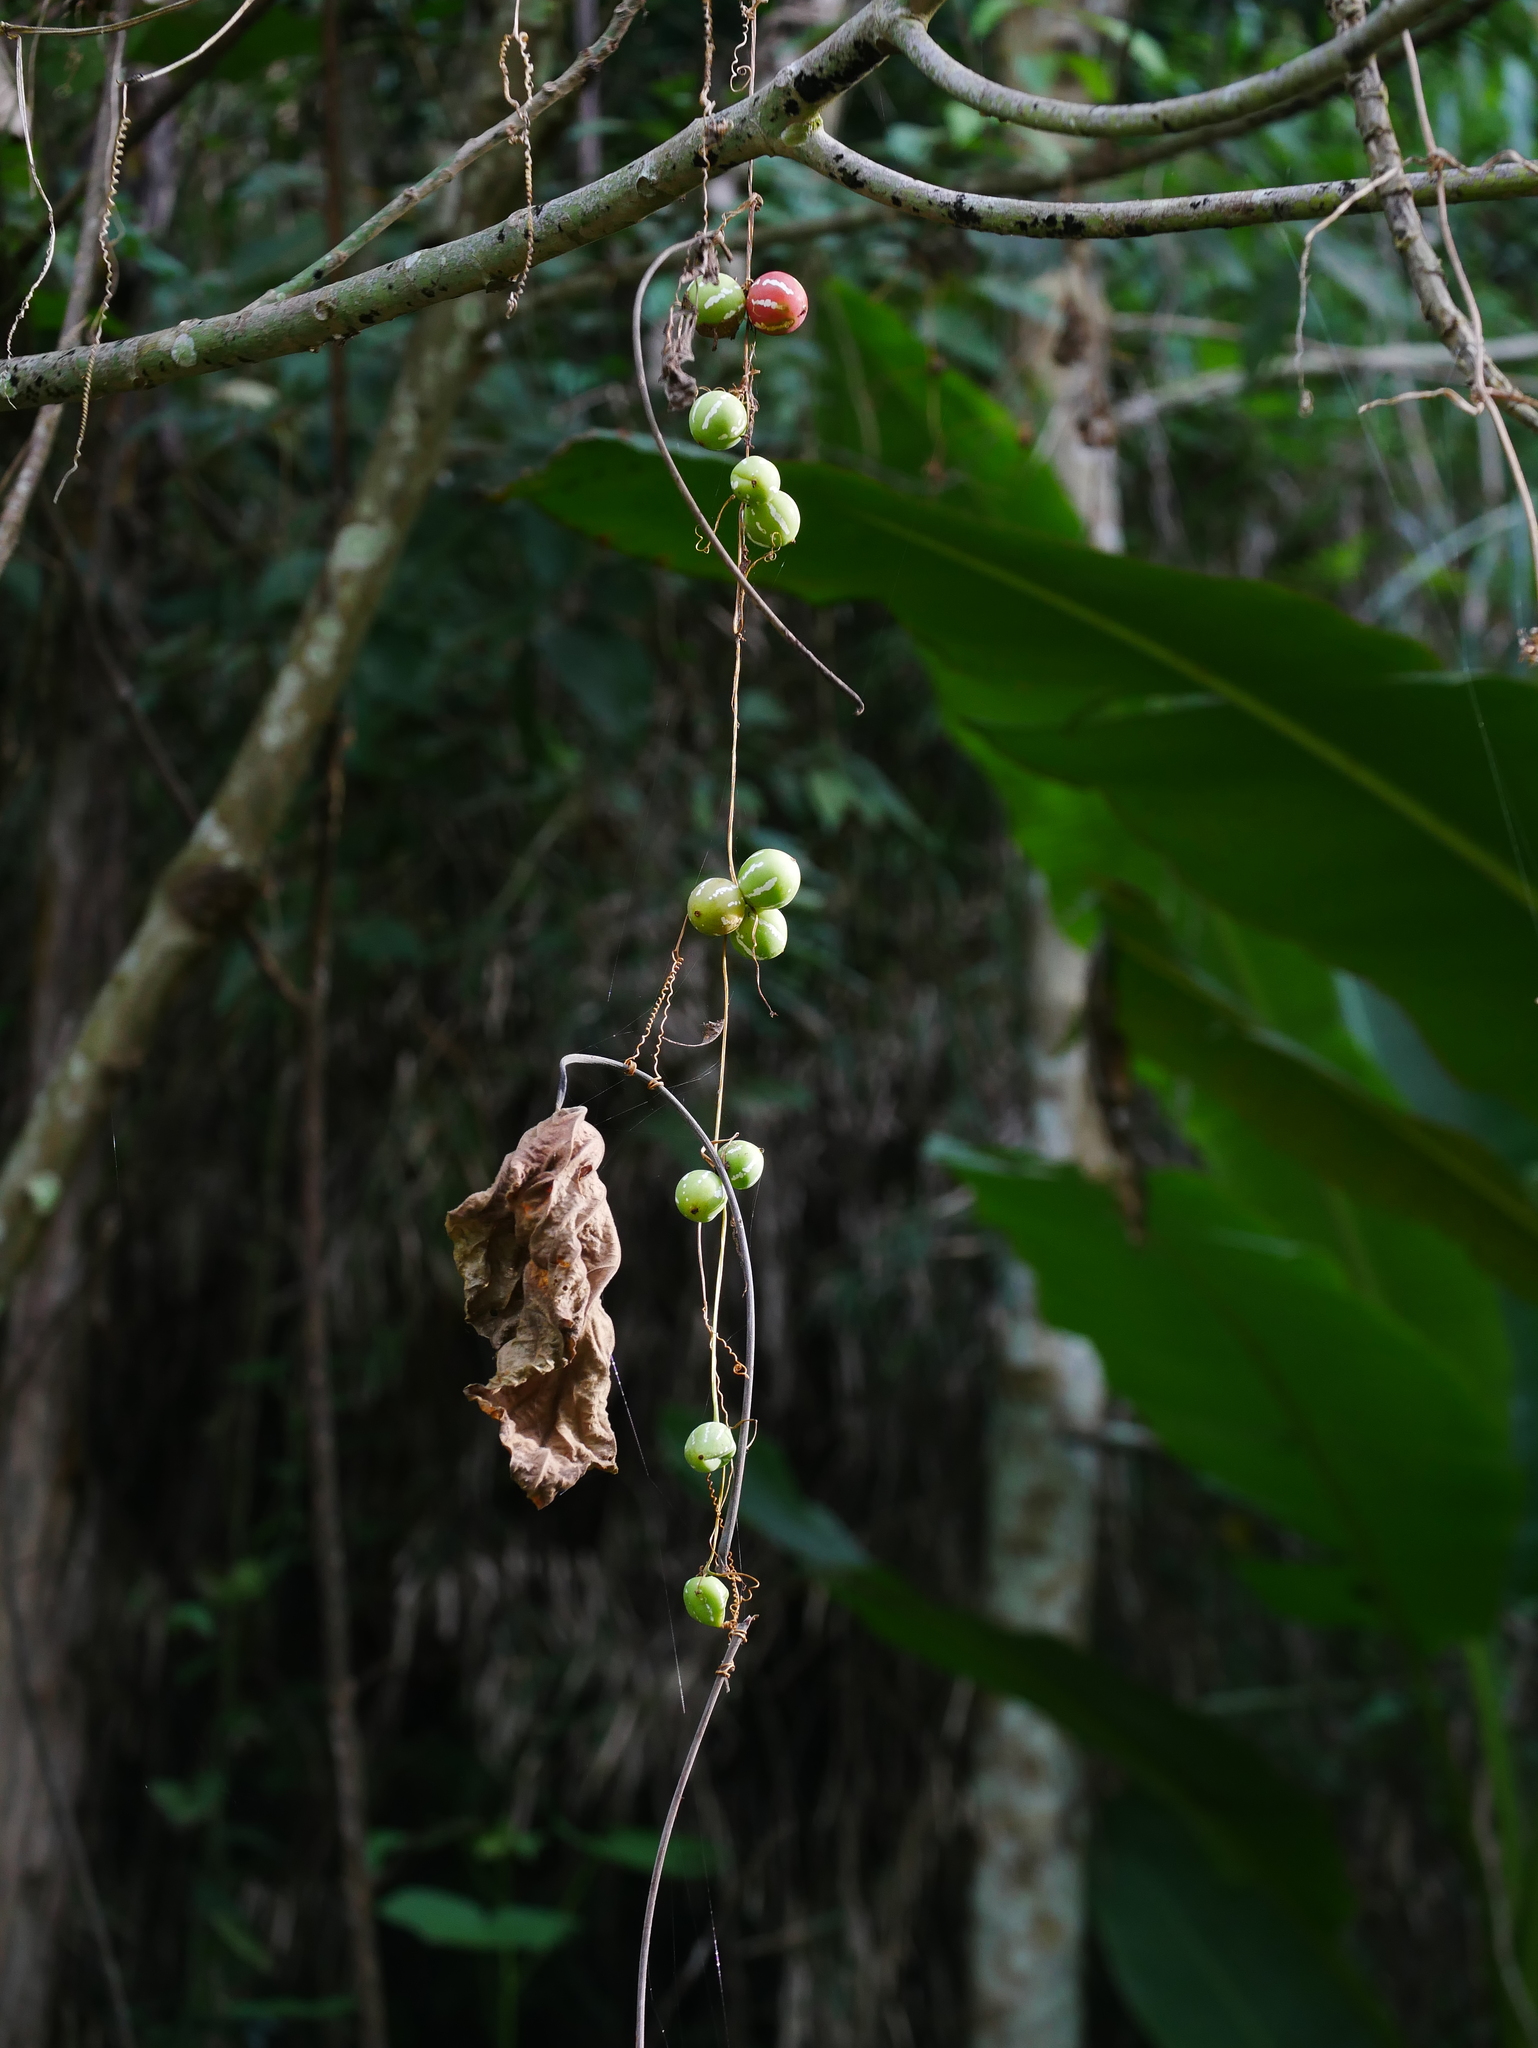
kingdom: Plantae
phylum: Tracheophyta
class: Magnoliopsida
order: Cucurbitales
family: Cucurbitaceae
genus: Diplocyclos
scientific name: Diplocyclos palmatus
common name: Striped-cucumber
